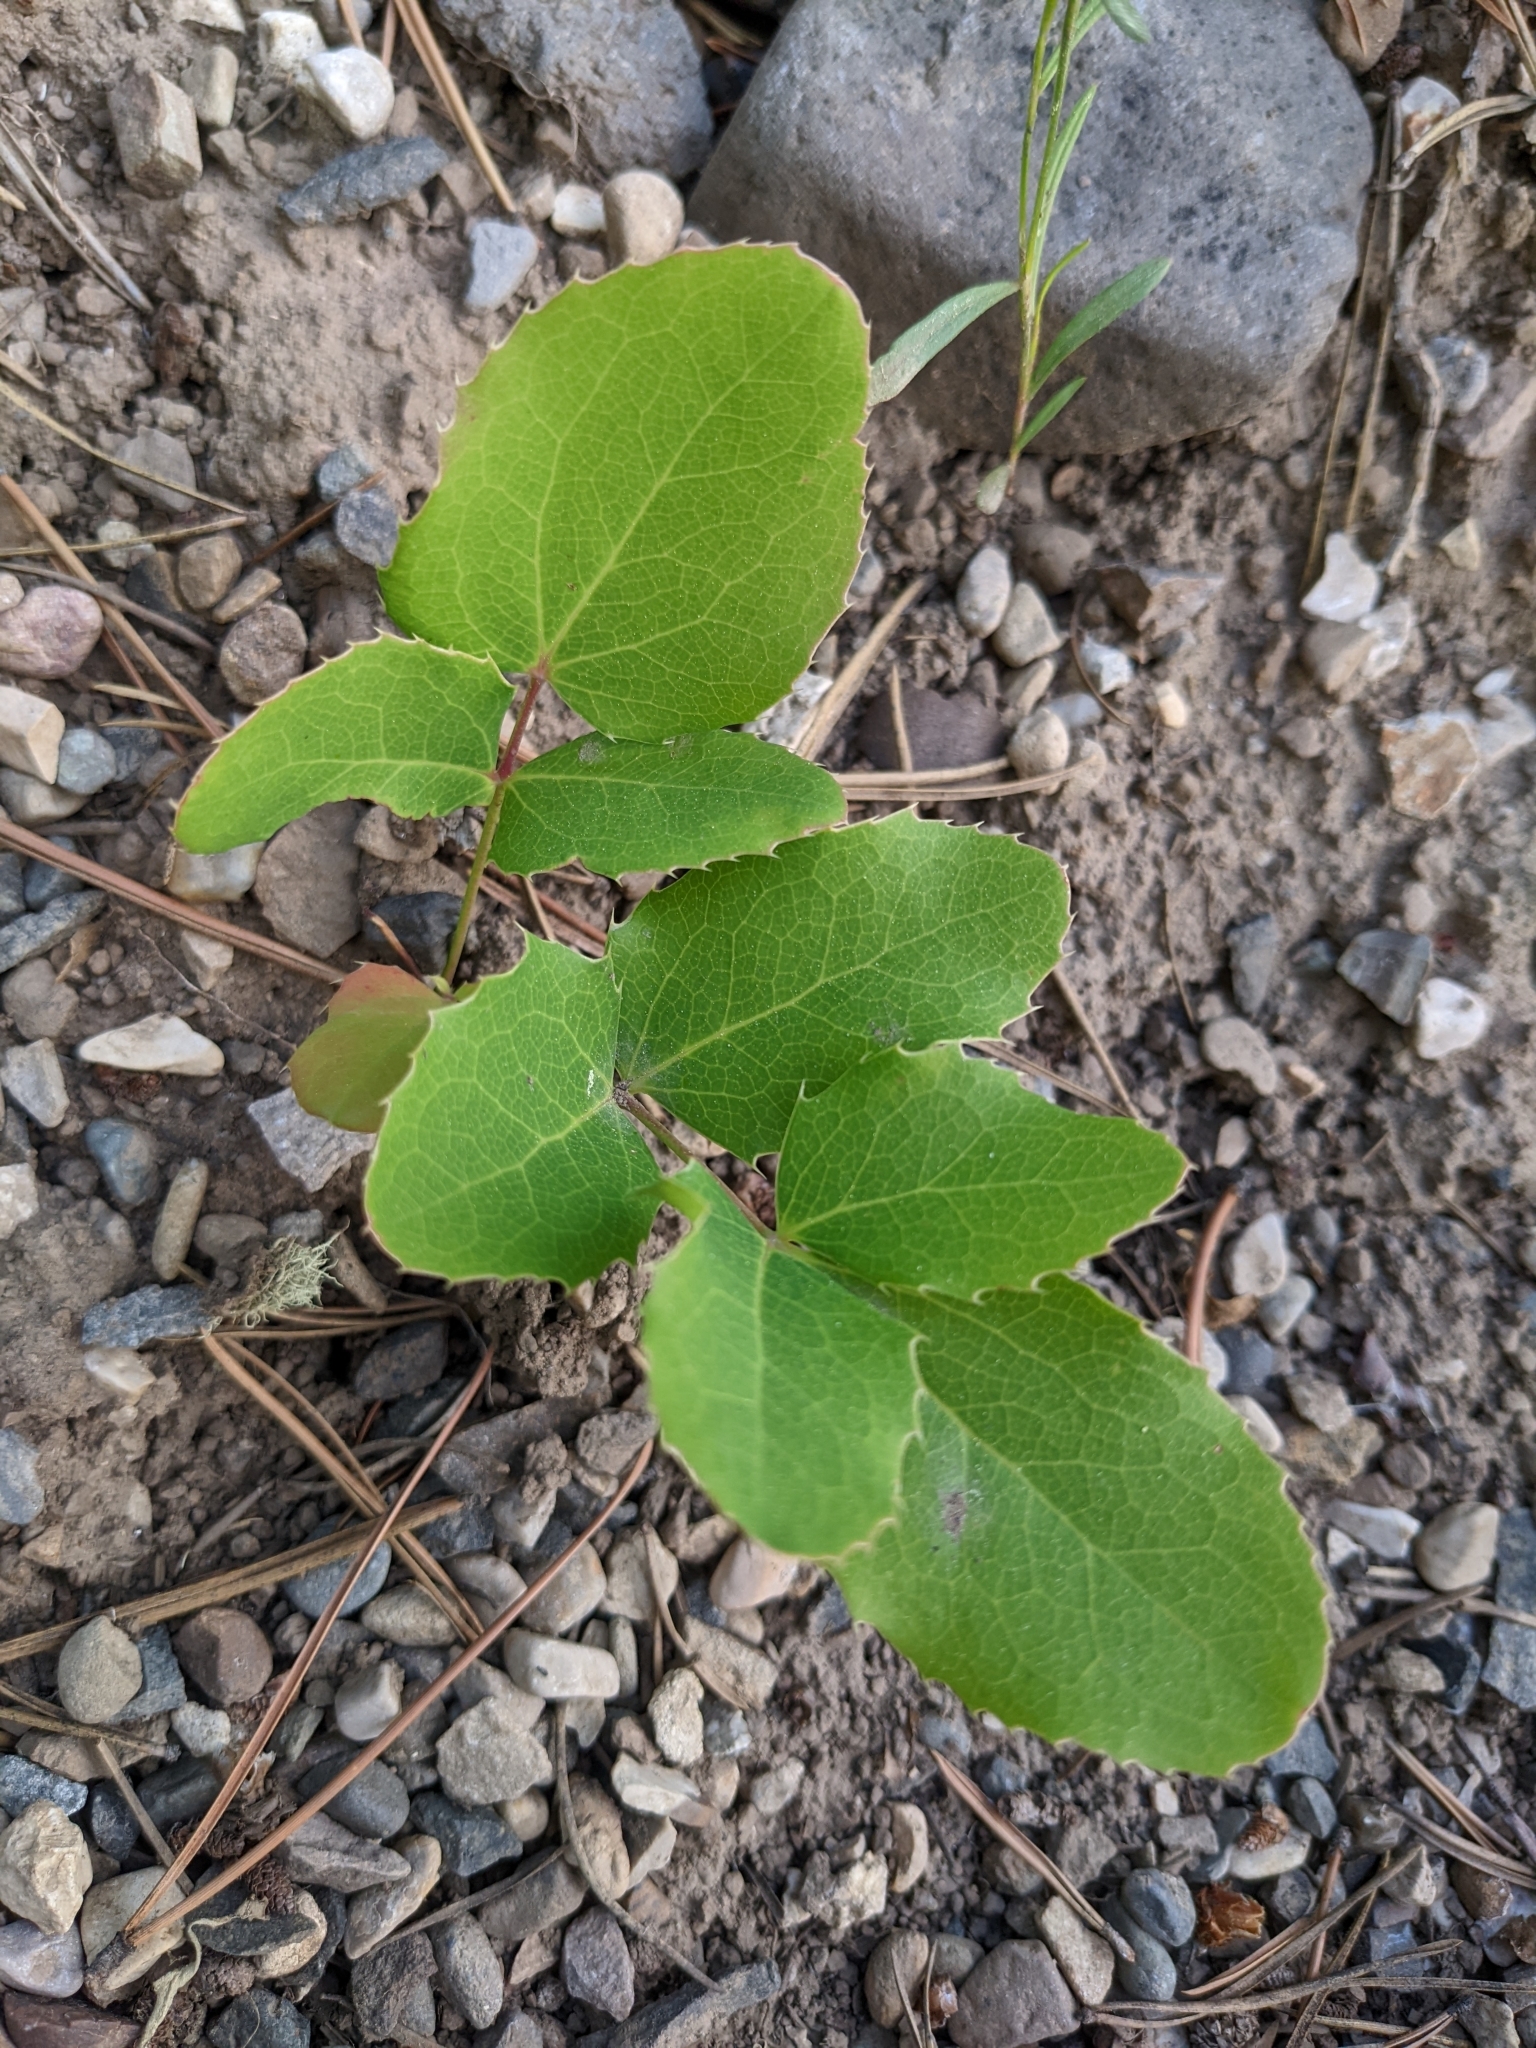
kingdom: Plantae
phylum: Tracheophyta
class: Magnoliopsida
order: Ranunculales
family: Berberidaceae
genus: Mahonia
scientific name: Mahonia repens
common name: Creeping oregon-grape
